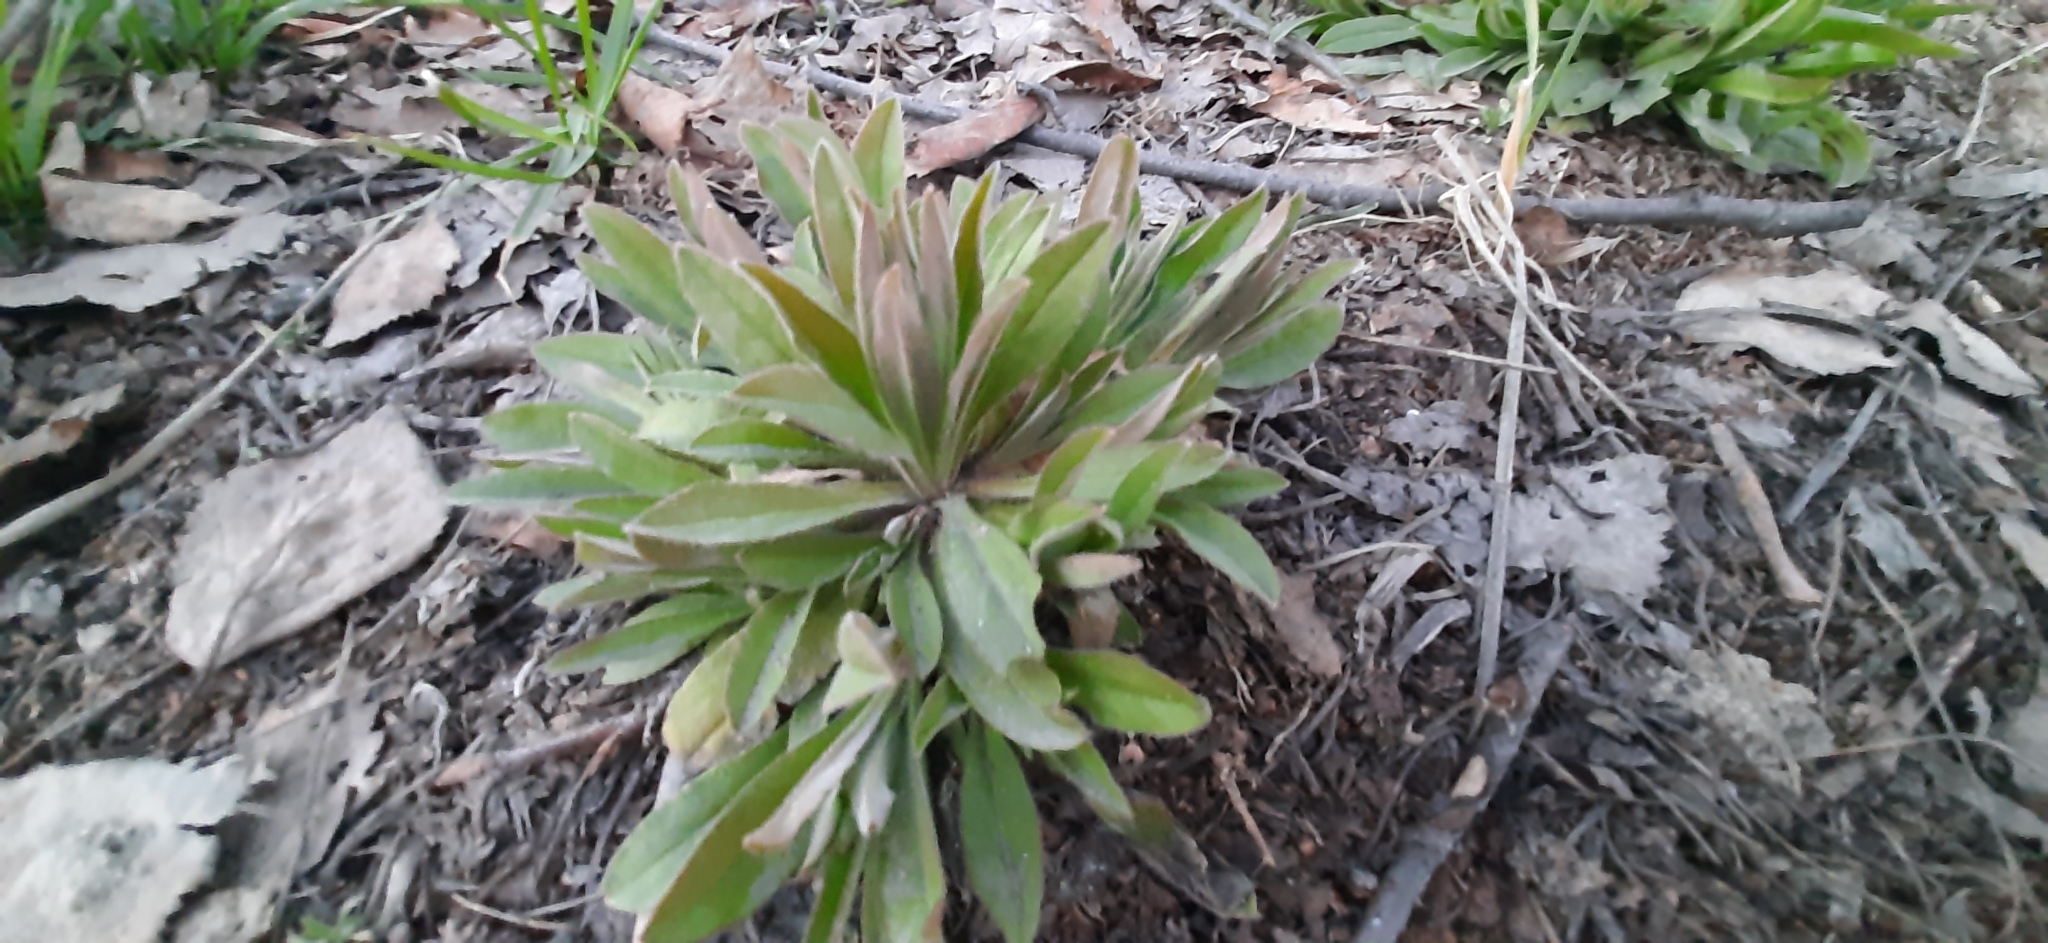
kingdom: Plantae
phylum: Tracheophyta
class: Magnoliopsida
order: Boraginales
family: Boraginaceae
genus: Lappula
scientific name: Lappula squarrosa
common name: European stickseed
